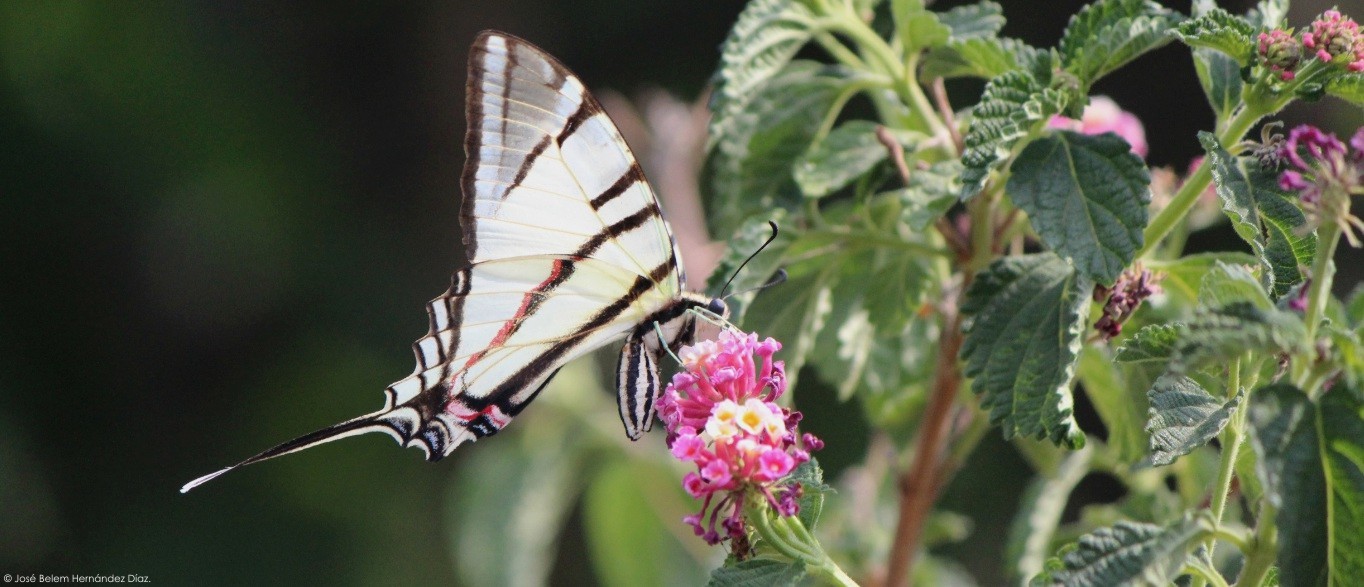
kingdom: Animalia
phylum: Arthropoda
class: Insecta
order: Lepidoptera
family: Papilionidae
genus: Protographium
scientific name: Protographium epidaus
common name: Mexican kite swallowtail
